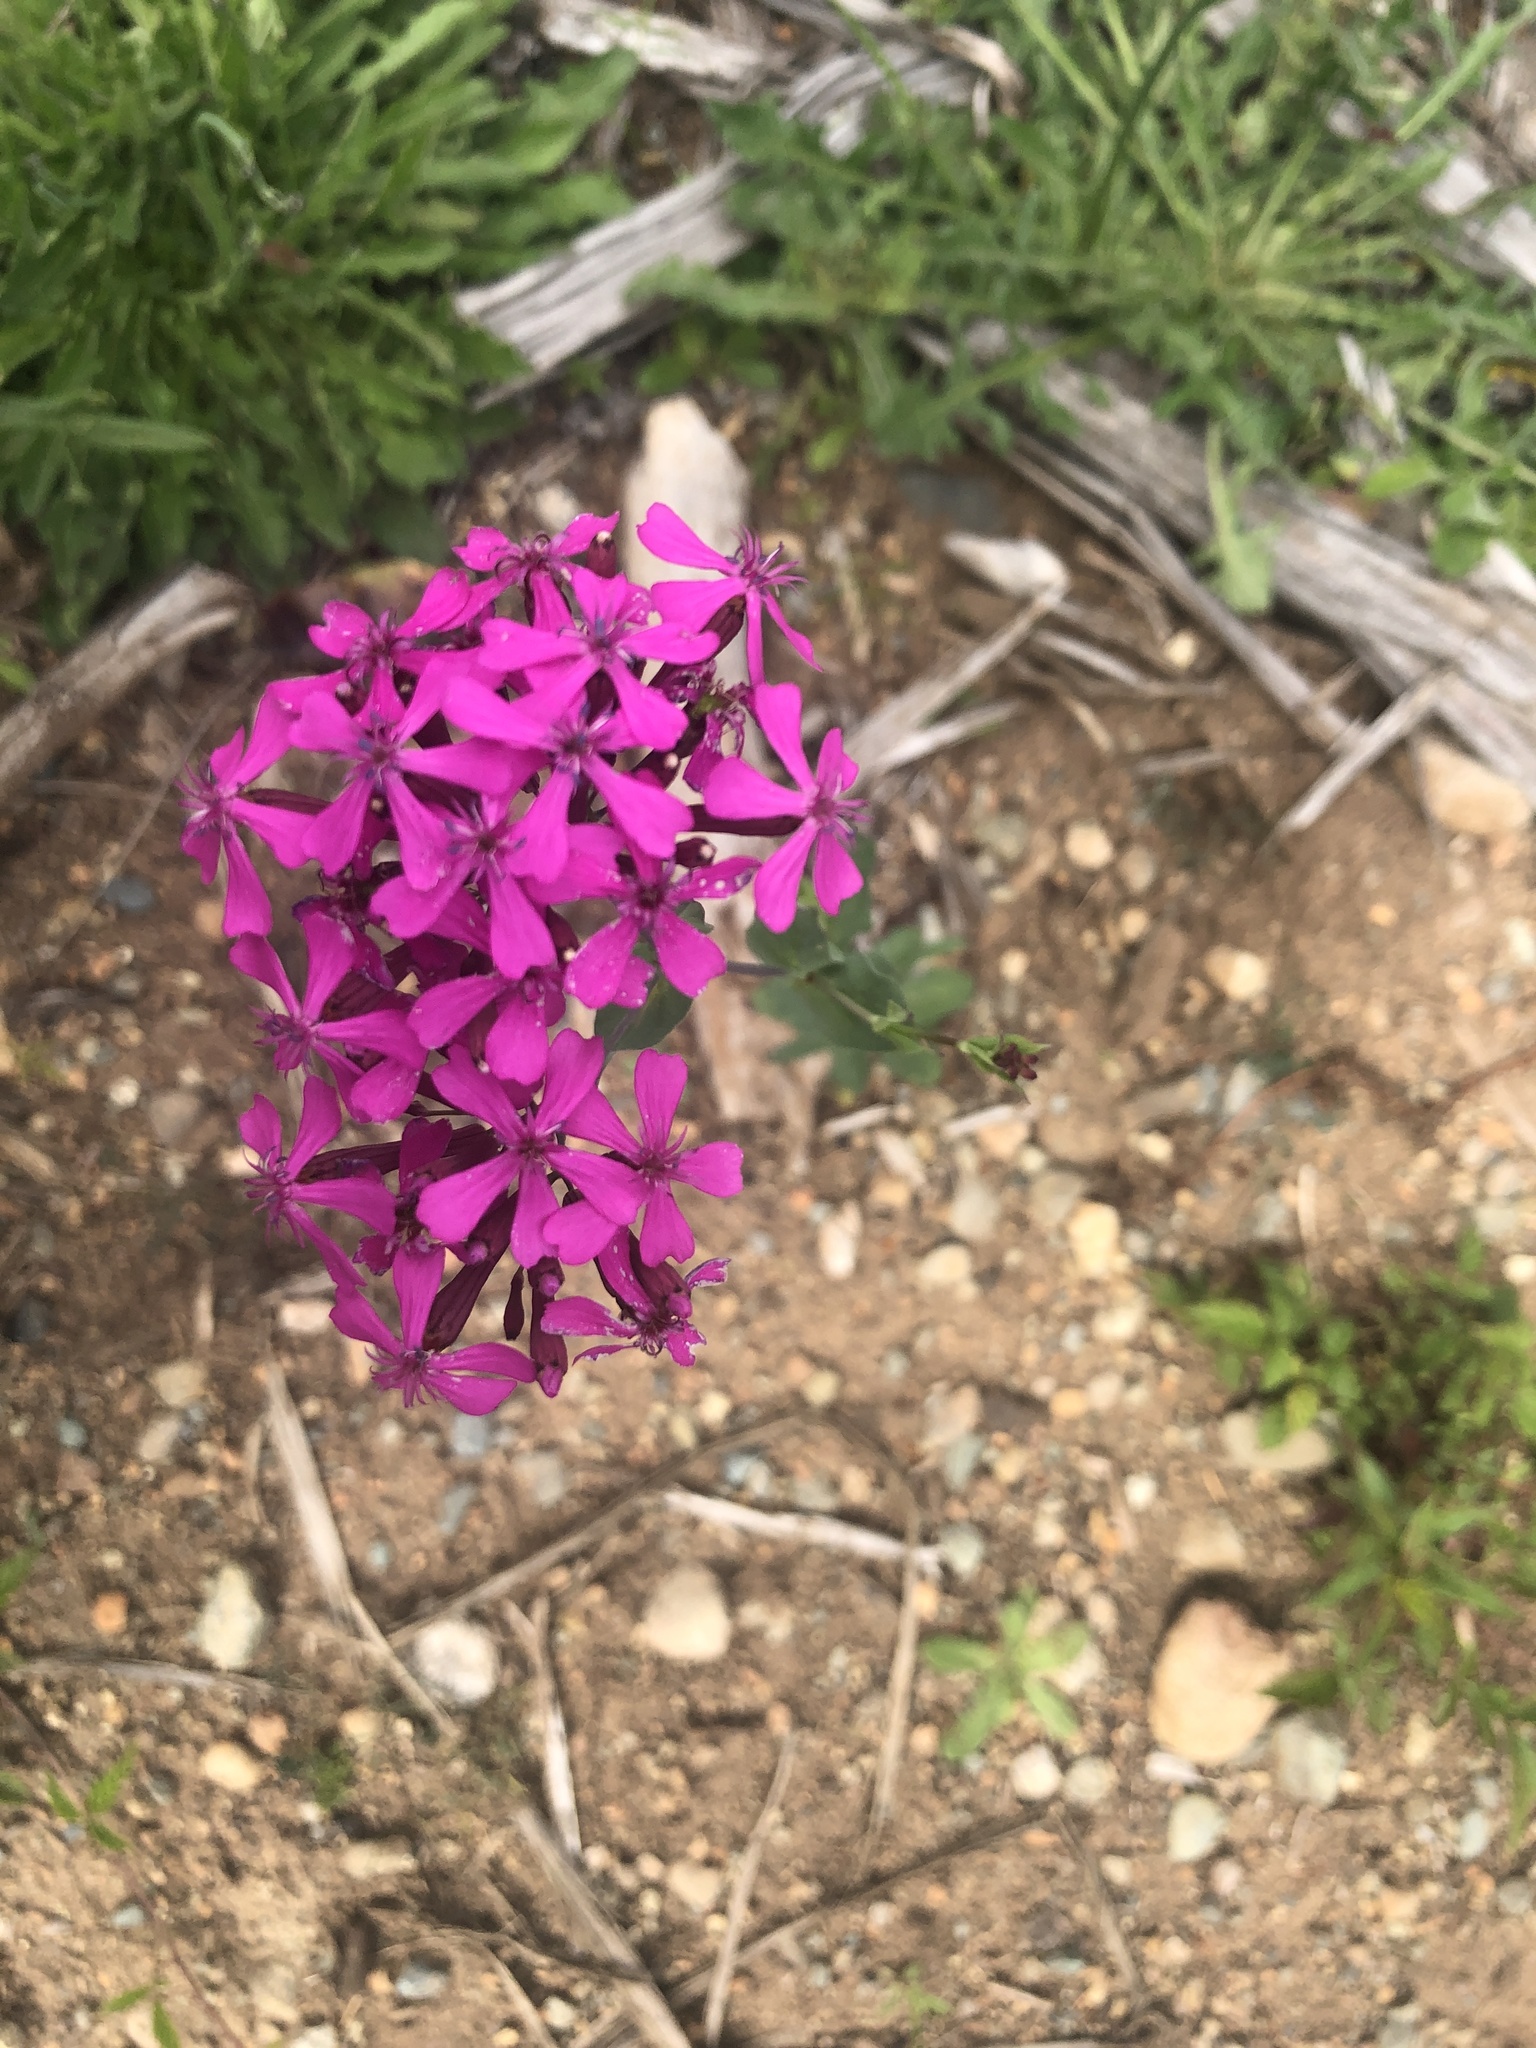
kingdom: Plantae
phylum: Tracheophyta
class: Magnoliopsida
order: Caryophyllales
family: Caryophyllaceae
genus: Atocion
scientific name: Atocion armeria
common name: Sweet william catchfly
